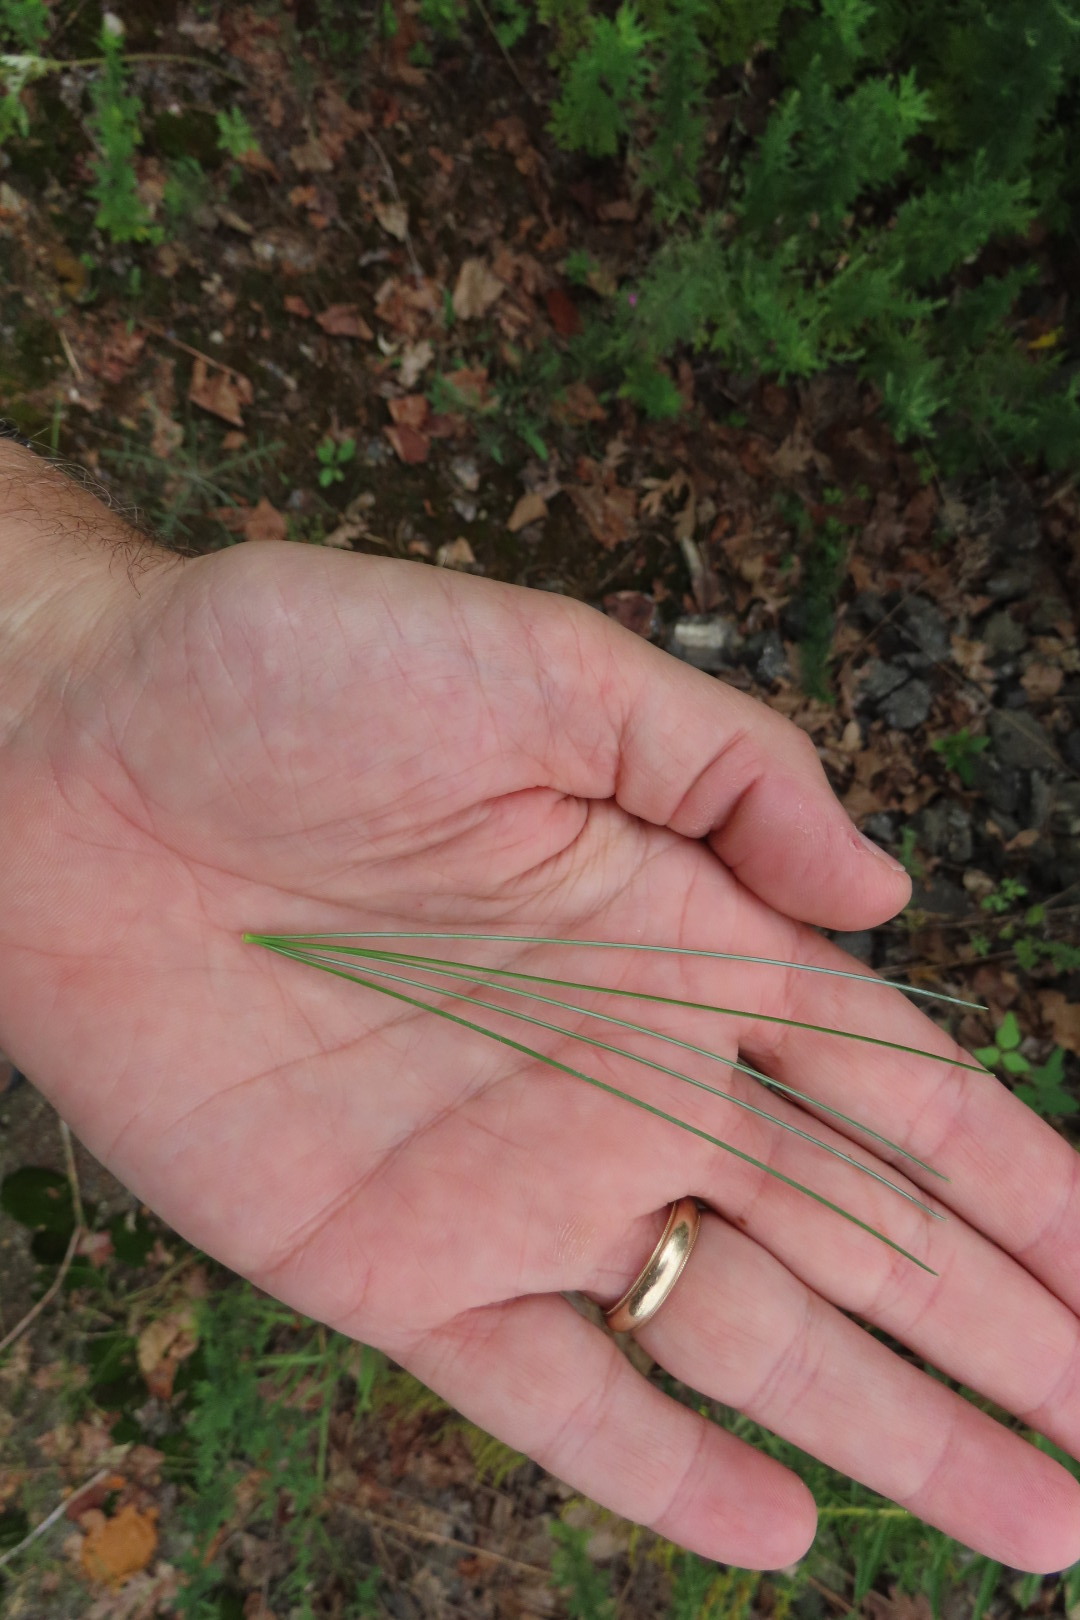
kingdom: Plantae
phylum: Tracheophyta
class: Pinopsida
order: Pinales
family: Pinaceae
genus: Pinus
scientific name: Pinus strobus
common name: Weymouth pine
